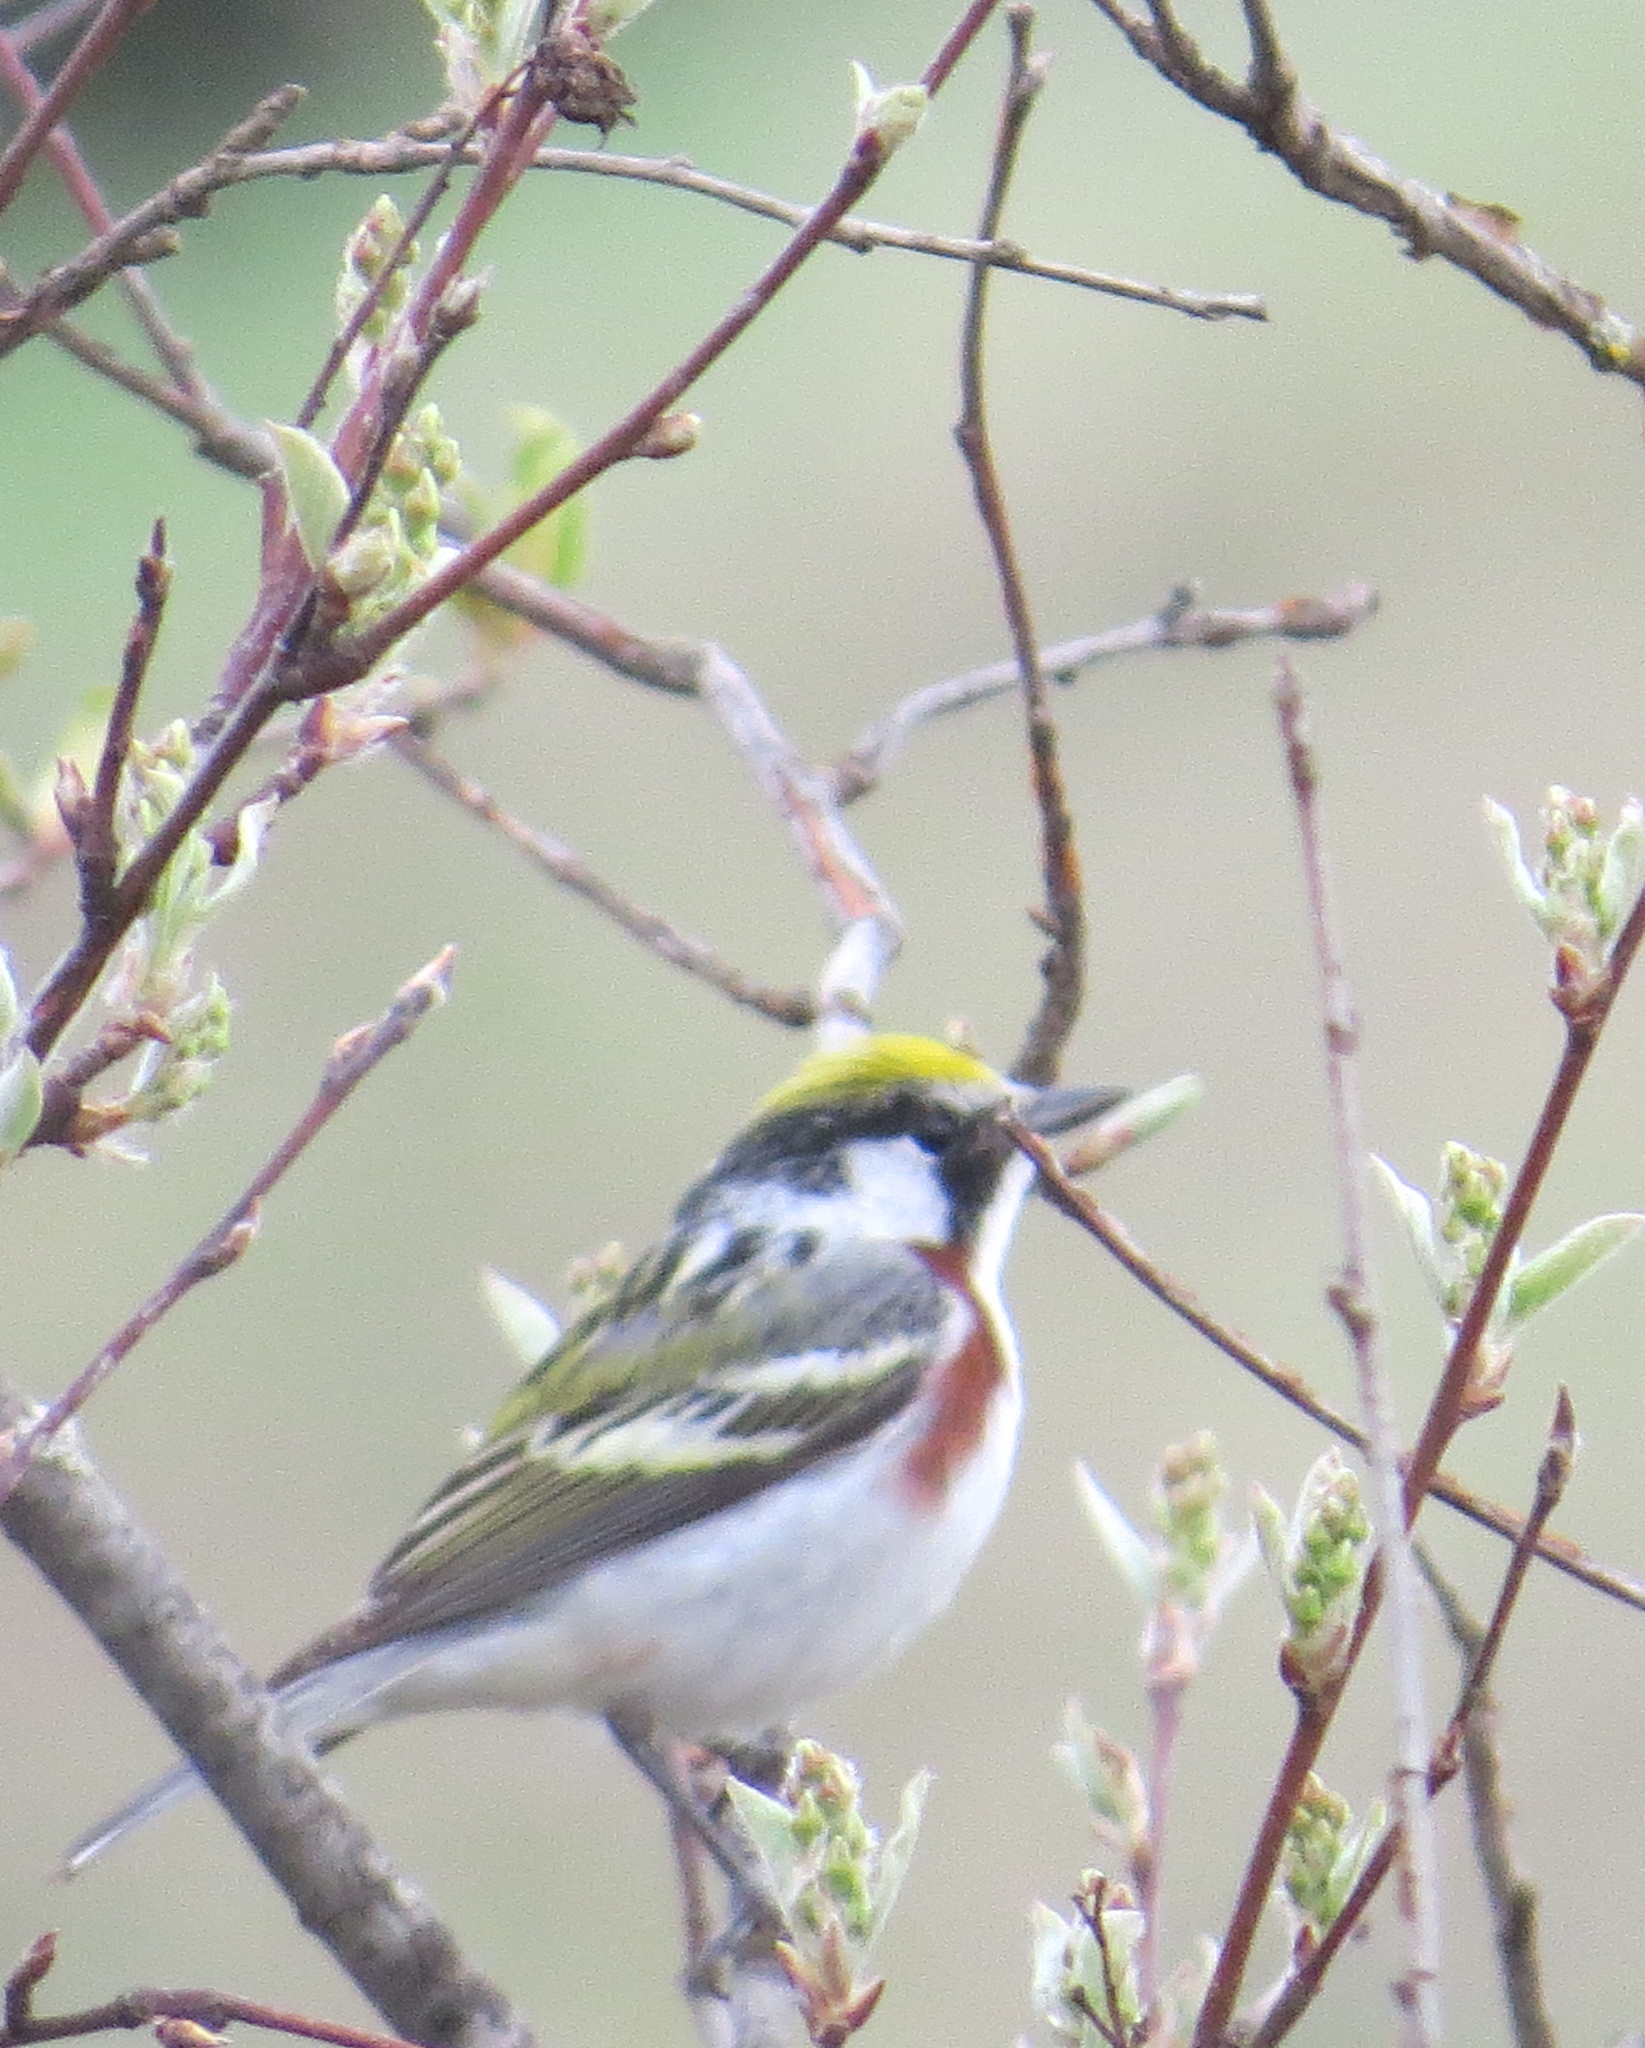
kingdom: Animalia
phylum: Chordata
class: Aves
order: Passeriformes
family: Parulidae
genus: Setophaga
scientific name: Setophaga pensylvanica
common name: Chestnut-sided warbler
